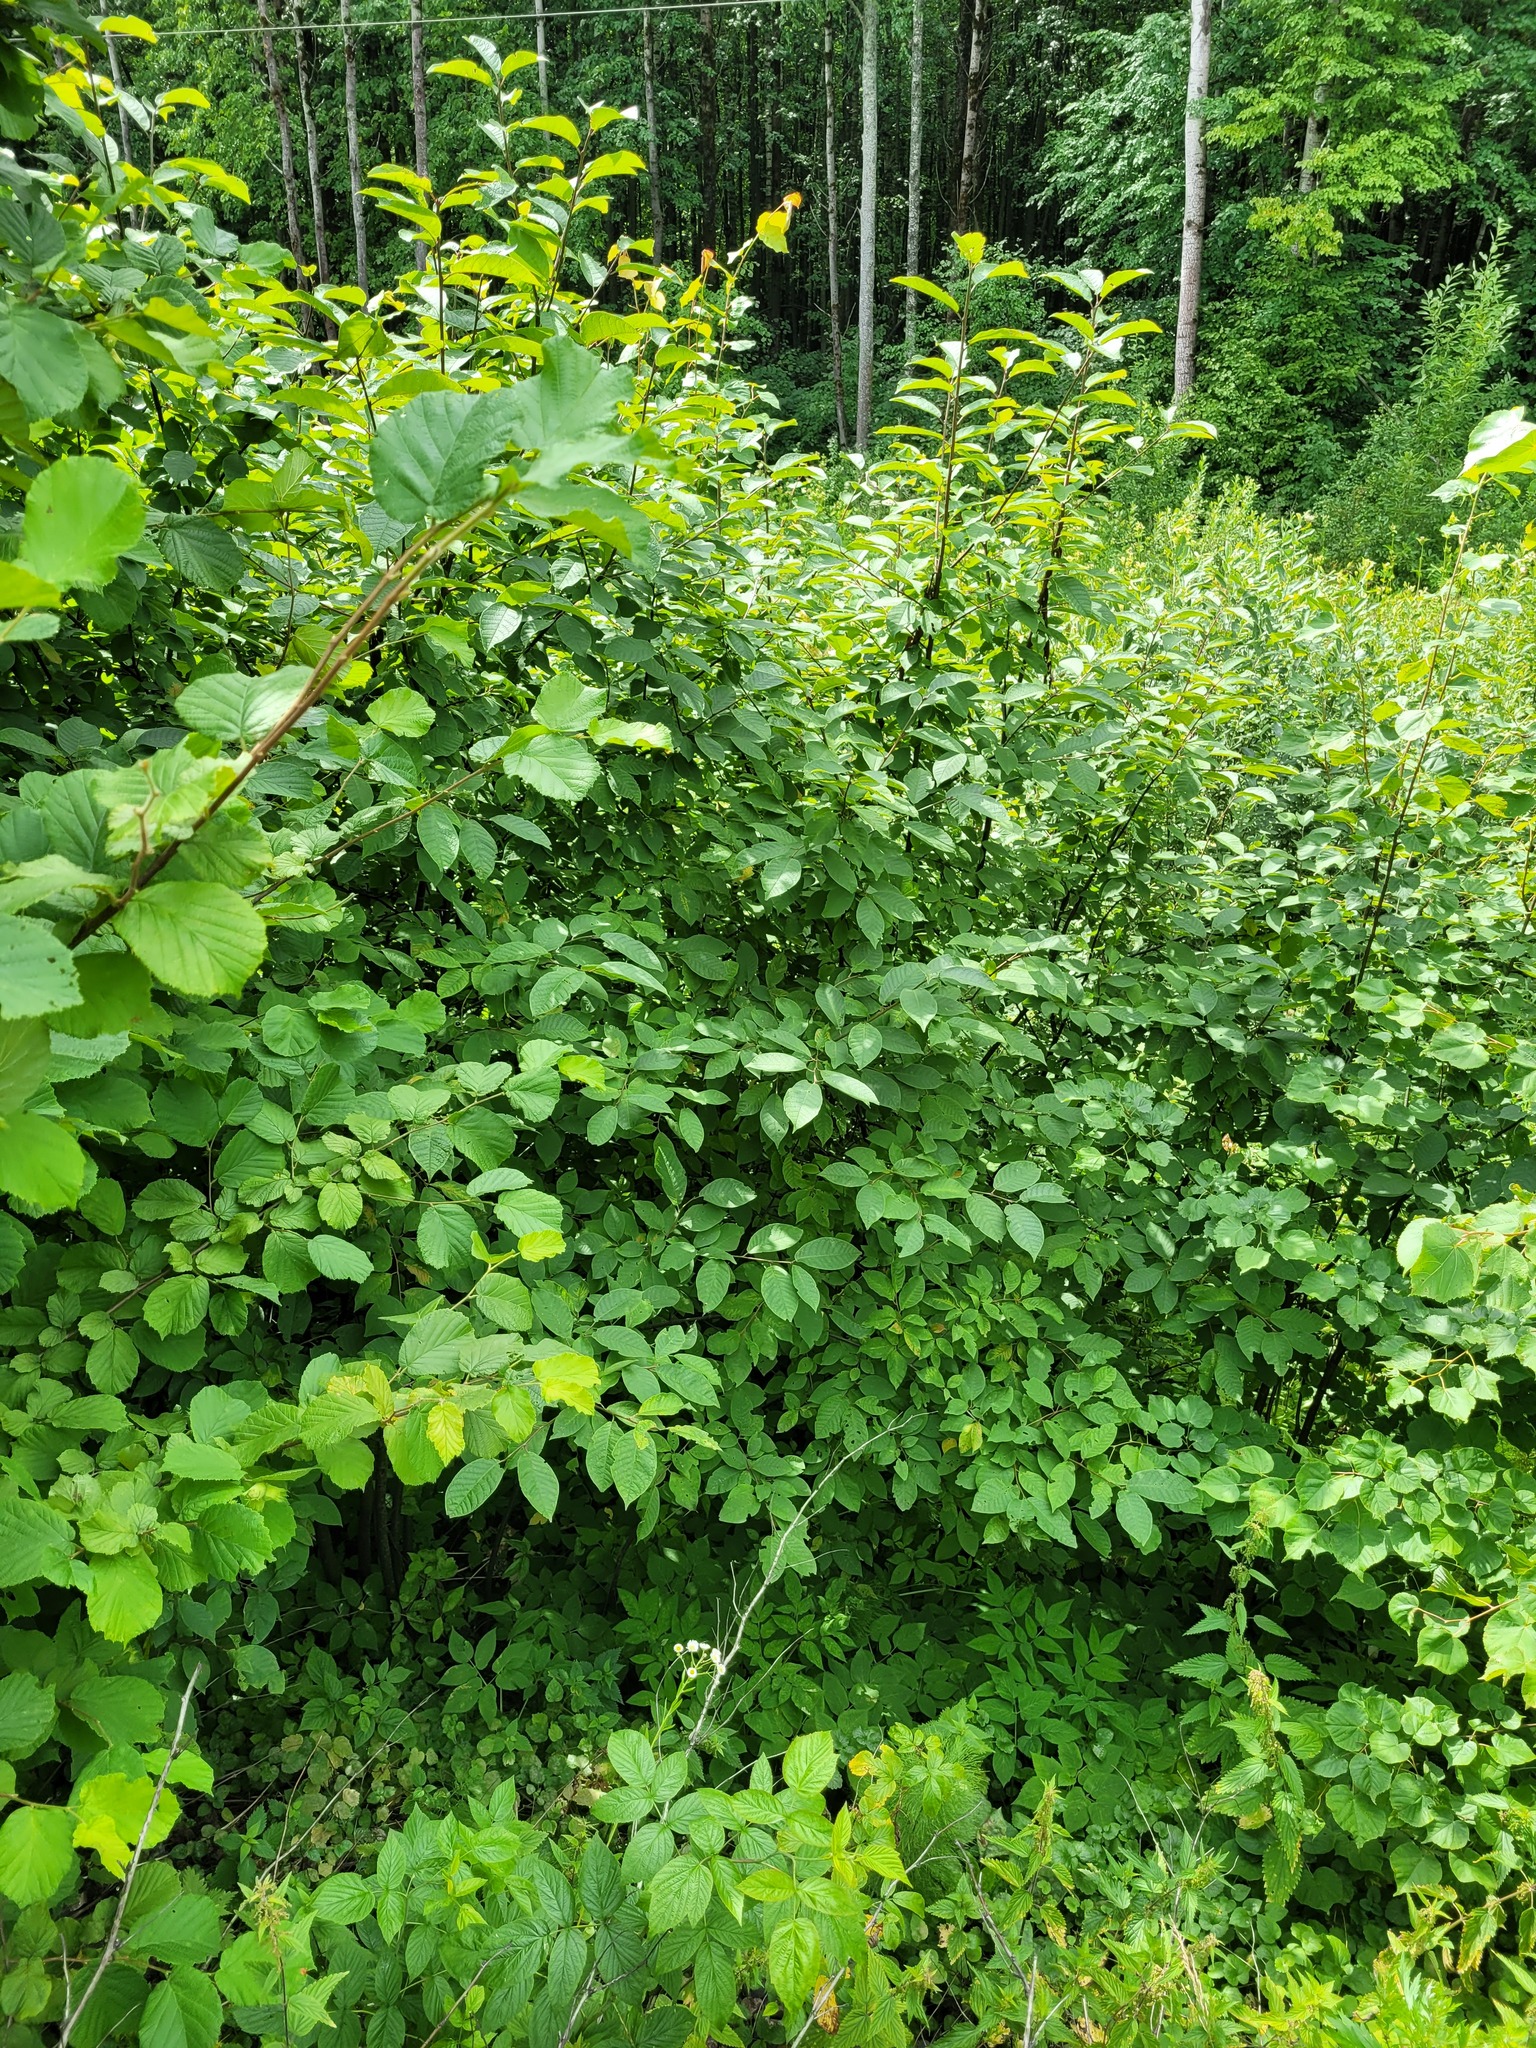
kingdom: Plantae
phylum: Tracheophyta
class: Magnoliopsida
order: Rosales
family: Rosaceae
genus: Prunus
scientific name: Prunus padus
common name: Bird cherry
